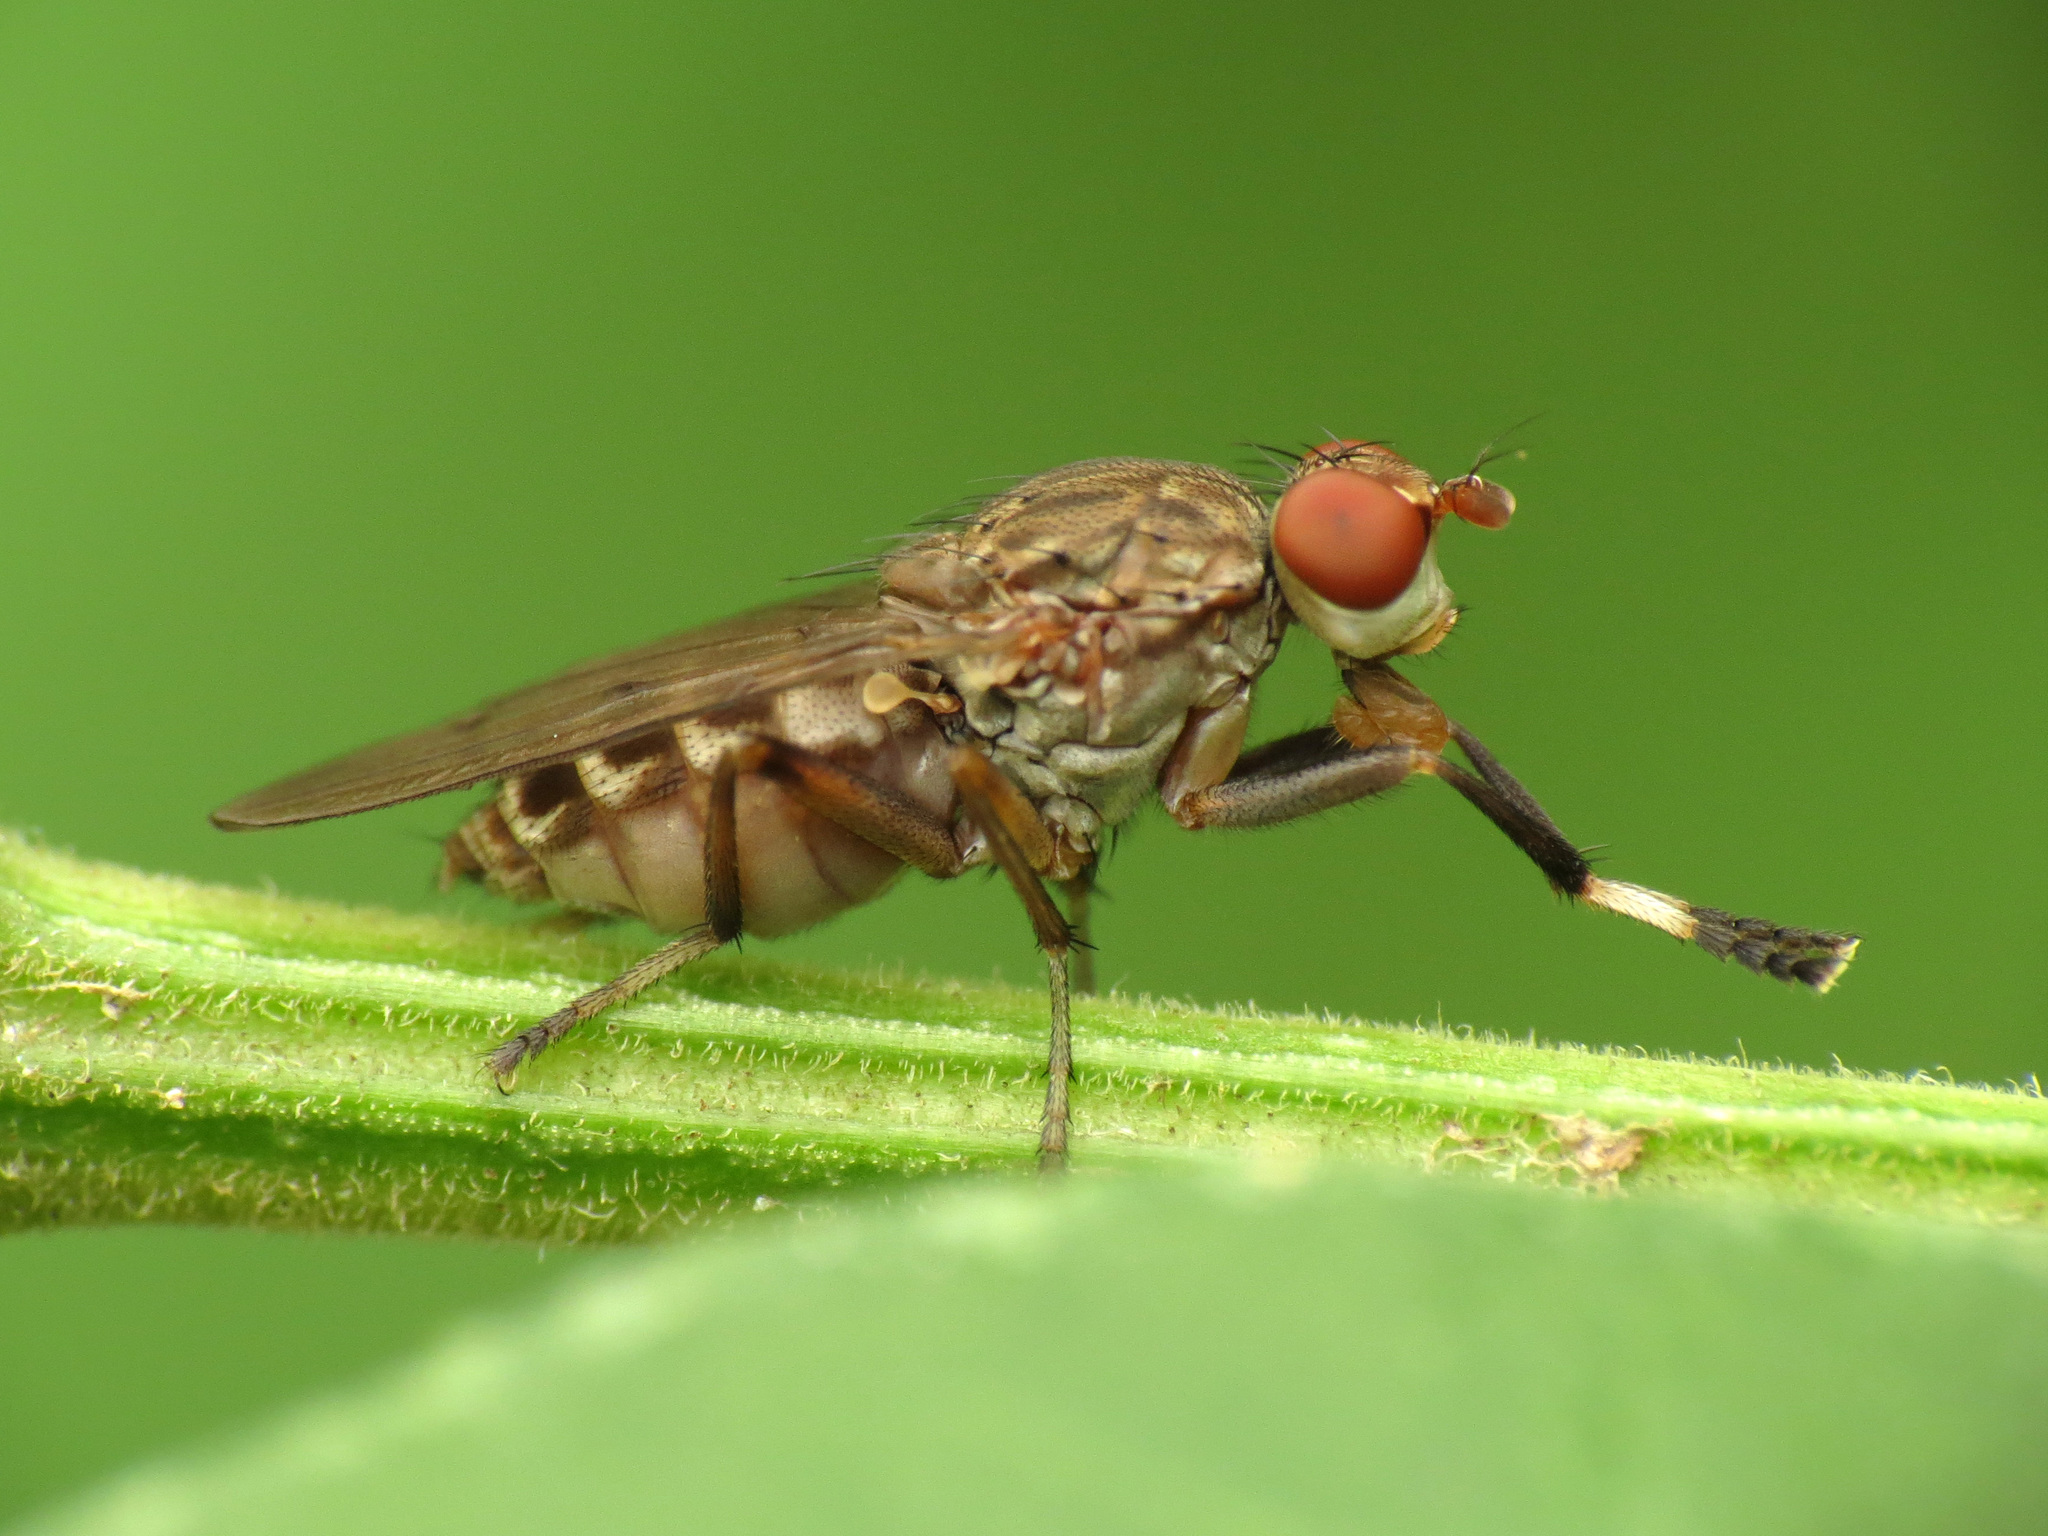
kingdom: Animalia
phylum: Arthropoda
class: Insecta
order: Diptera
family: Sciomyzidae
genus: Atrichomelina
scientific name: Atrichomelina pubera
